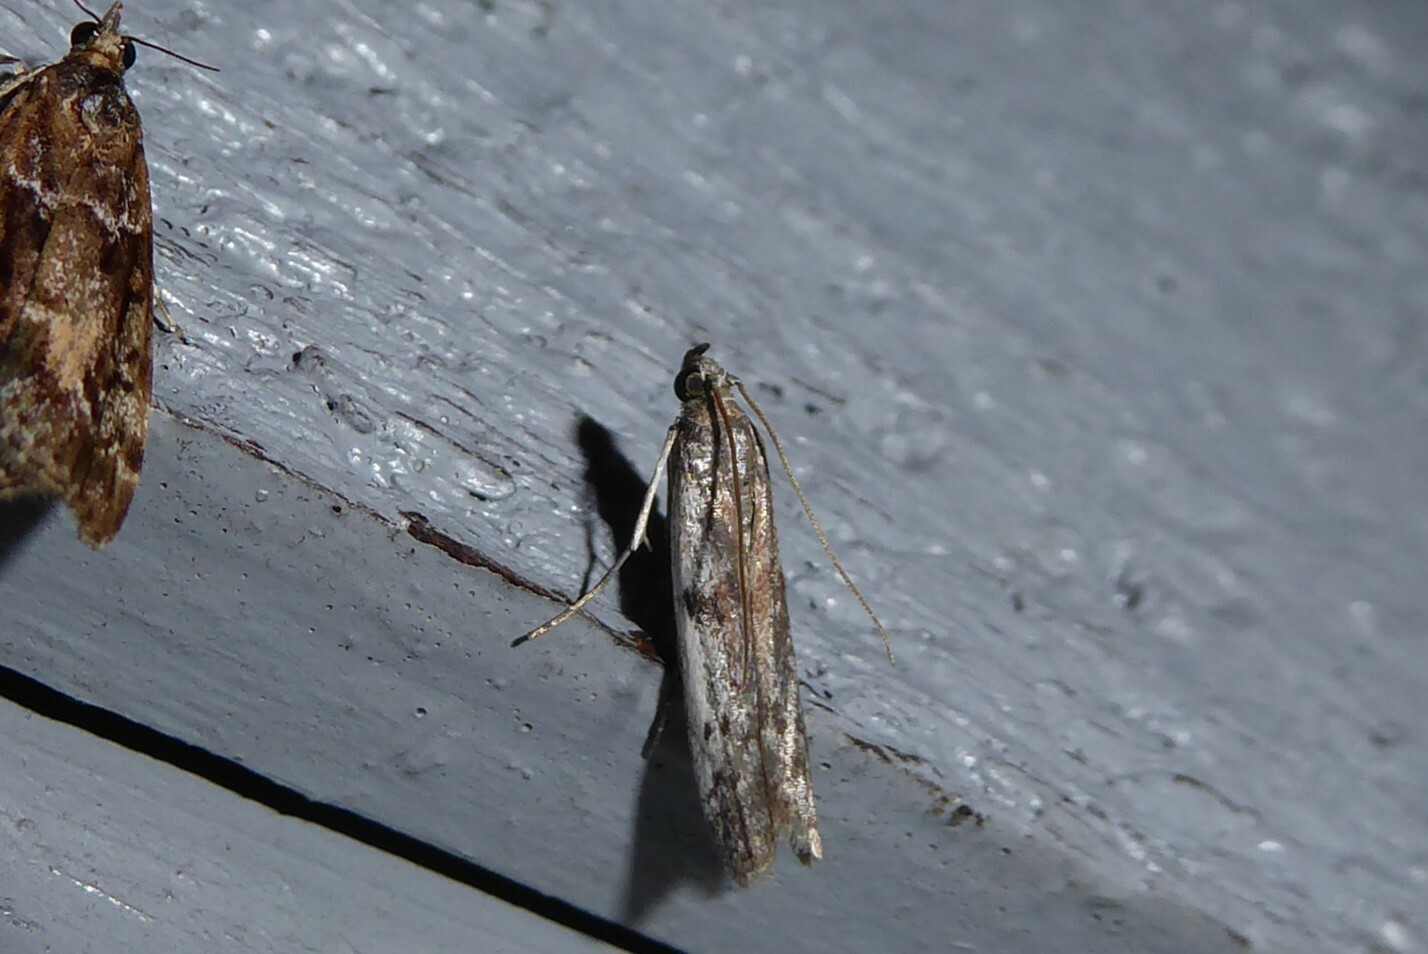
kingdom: Animalia
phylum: Arthropoda
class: Insecta
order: Lepidoptera
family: Pyralidae
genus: Patagoniodes
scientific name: Patagoniodes farinaria
